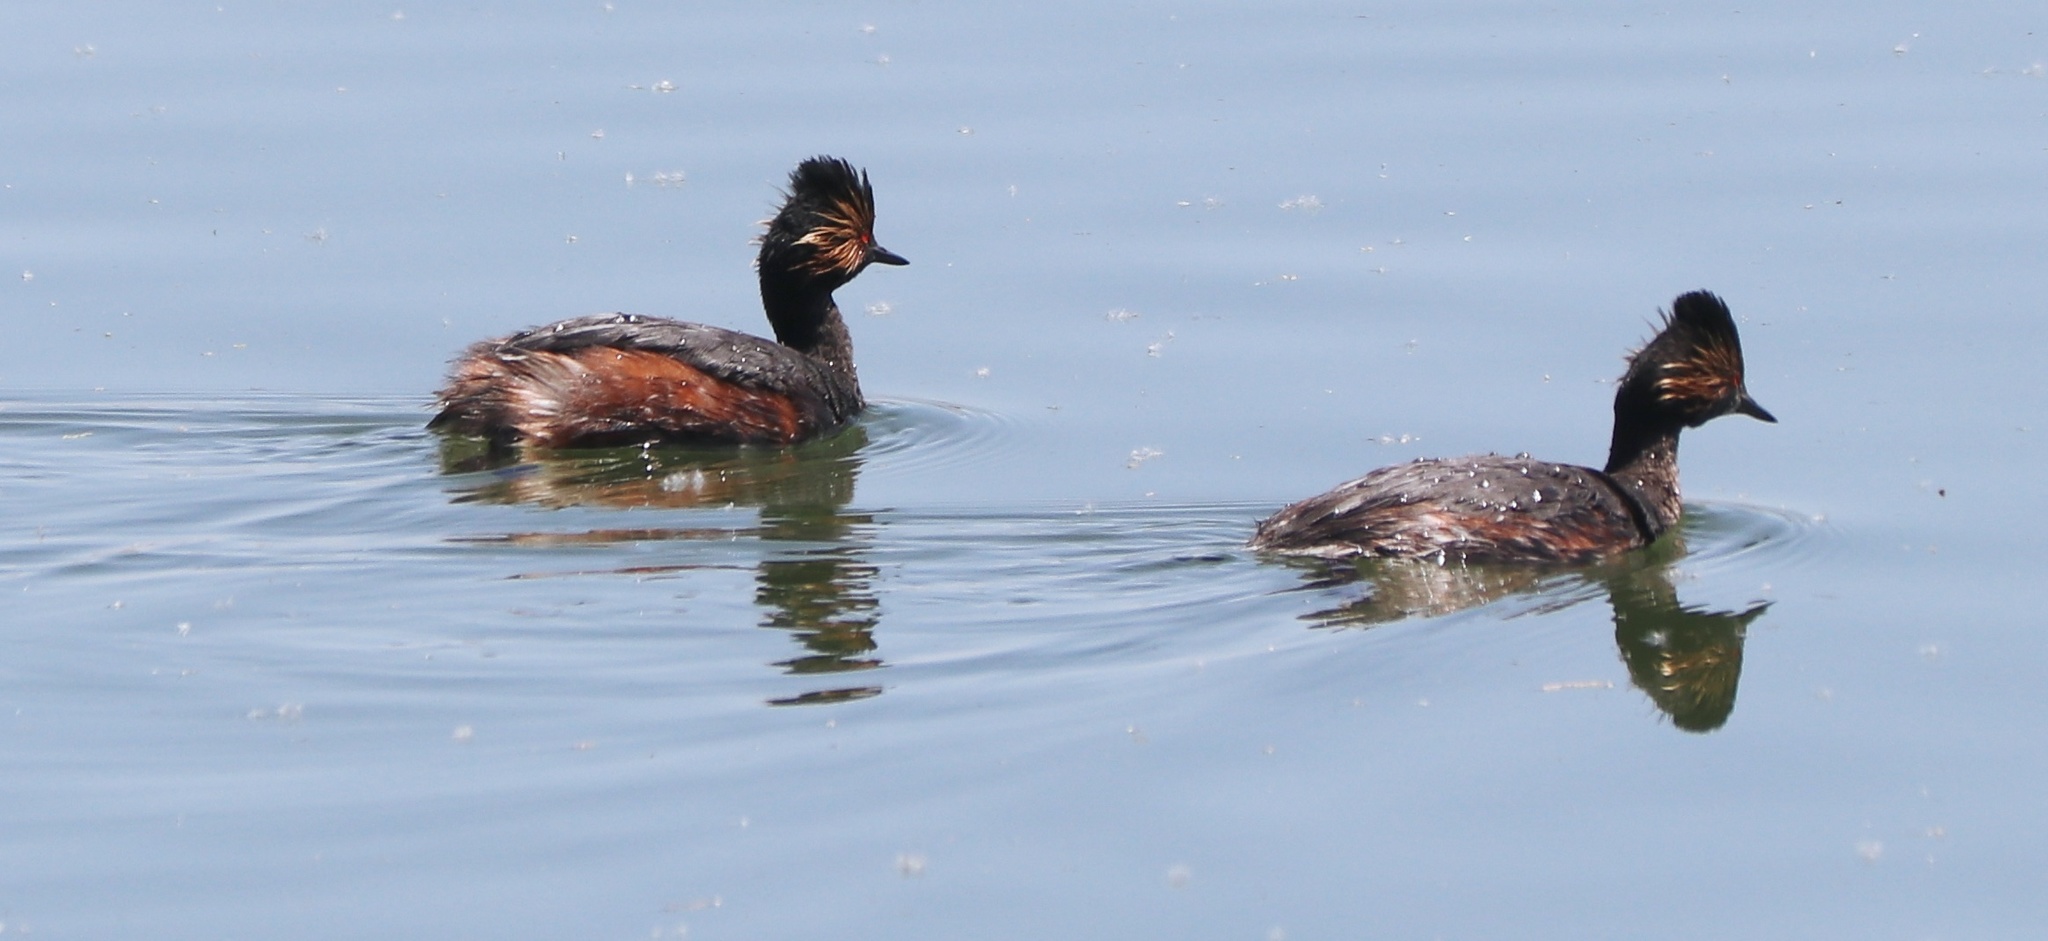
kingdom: Animalia
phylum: Chordata
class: Aves
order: Podicipediformes
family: Podicipedidae
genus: Podiceps
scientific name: Podiceps nigricollis
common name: Black-necked grebe
